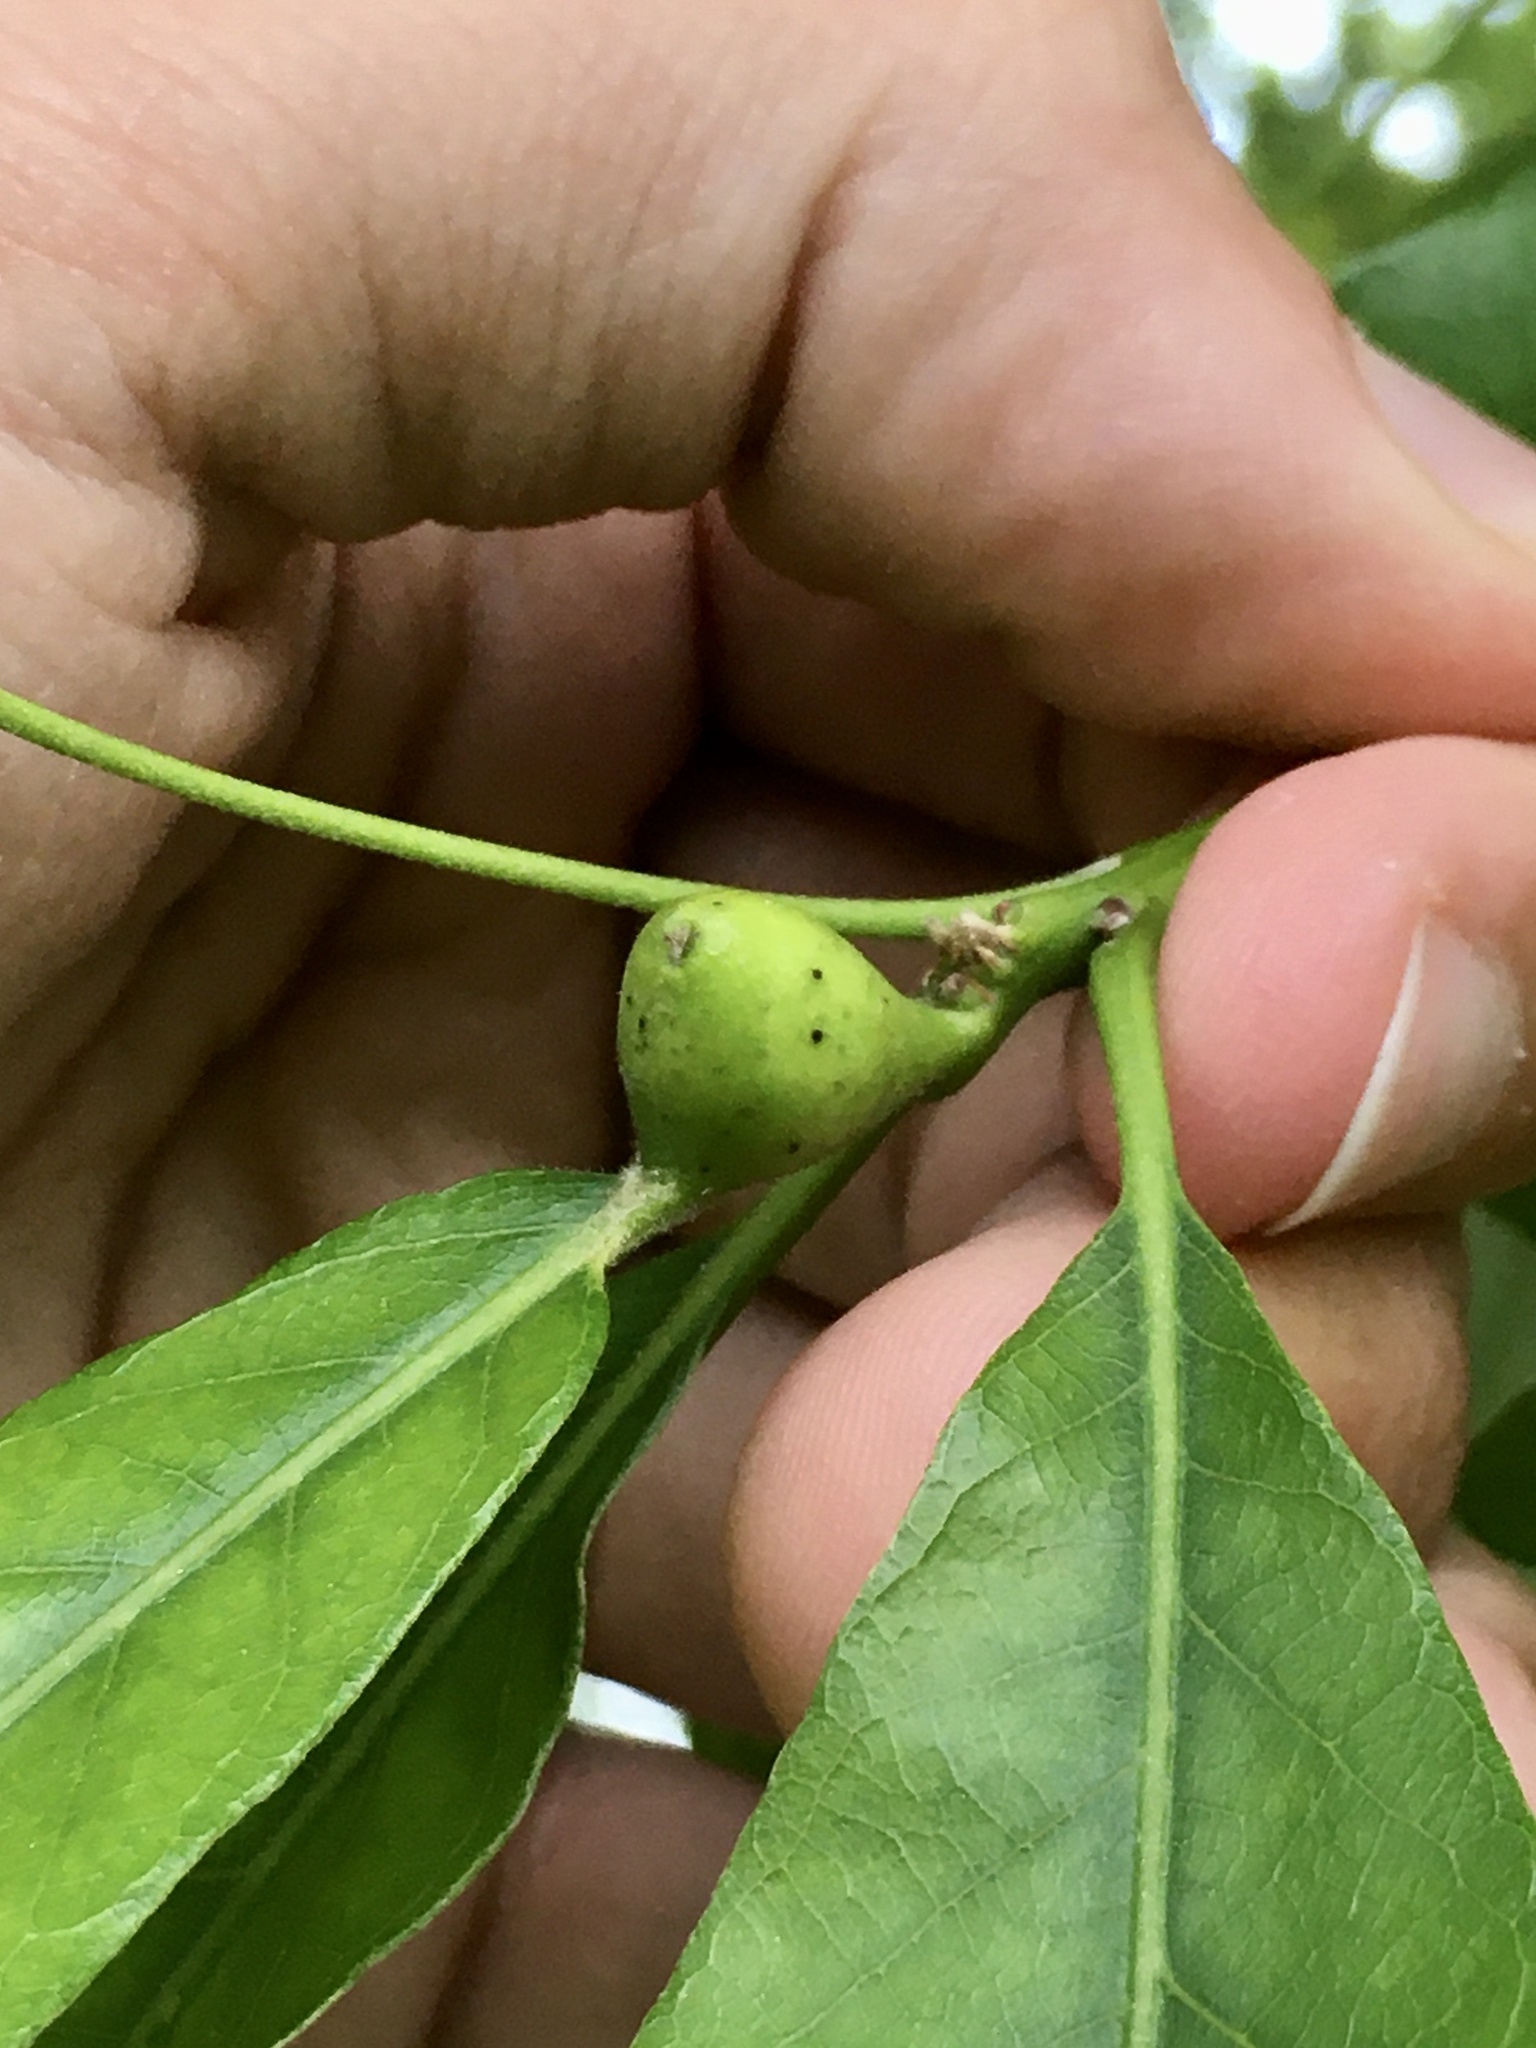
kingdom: Animalia
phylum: Arthropoda
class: Insecta
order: Hymenoptera
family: Cynipidae
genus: Andricus
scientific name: Andricus
